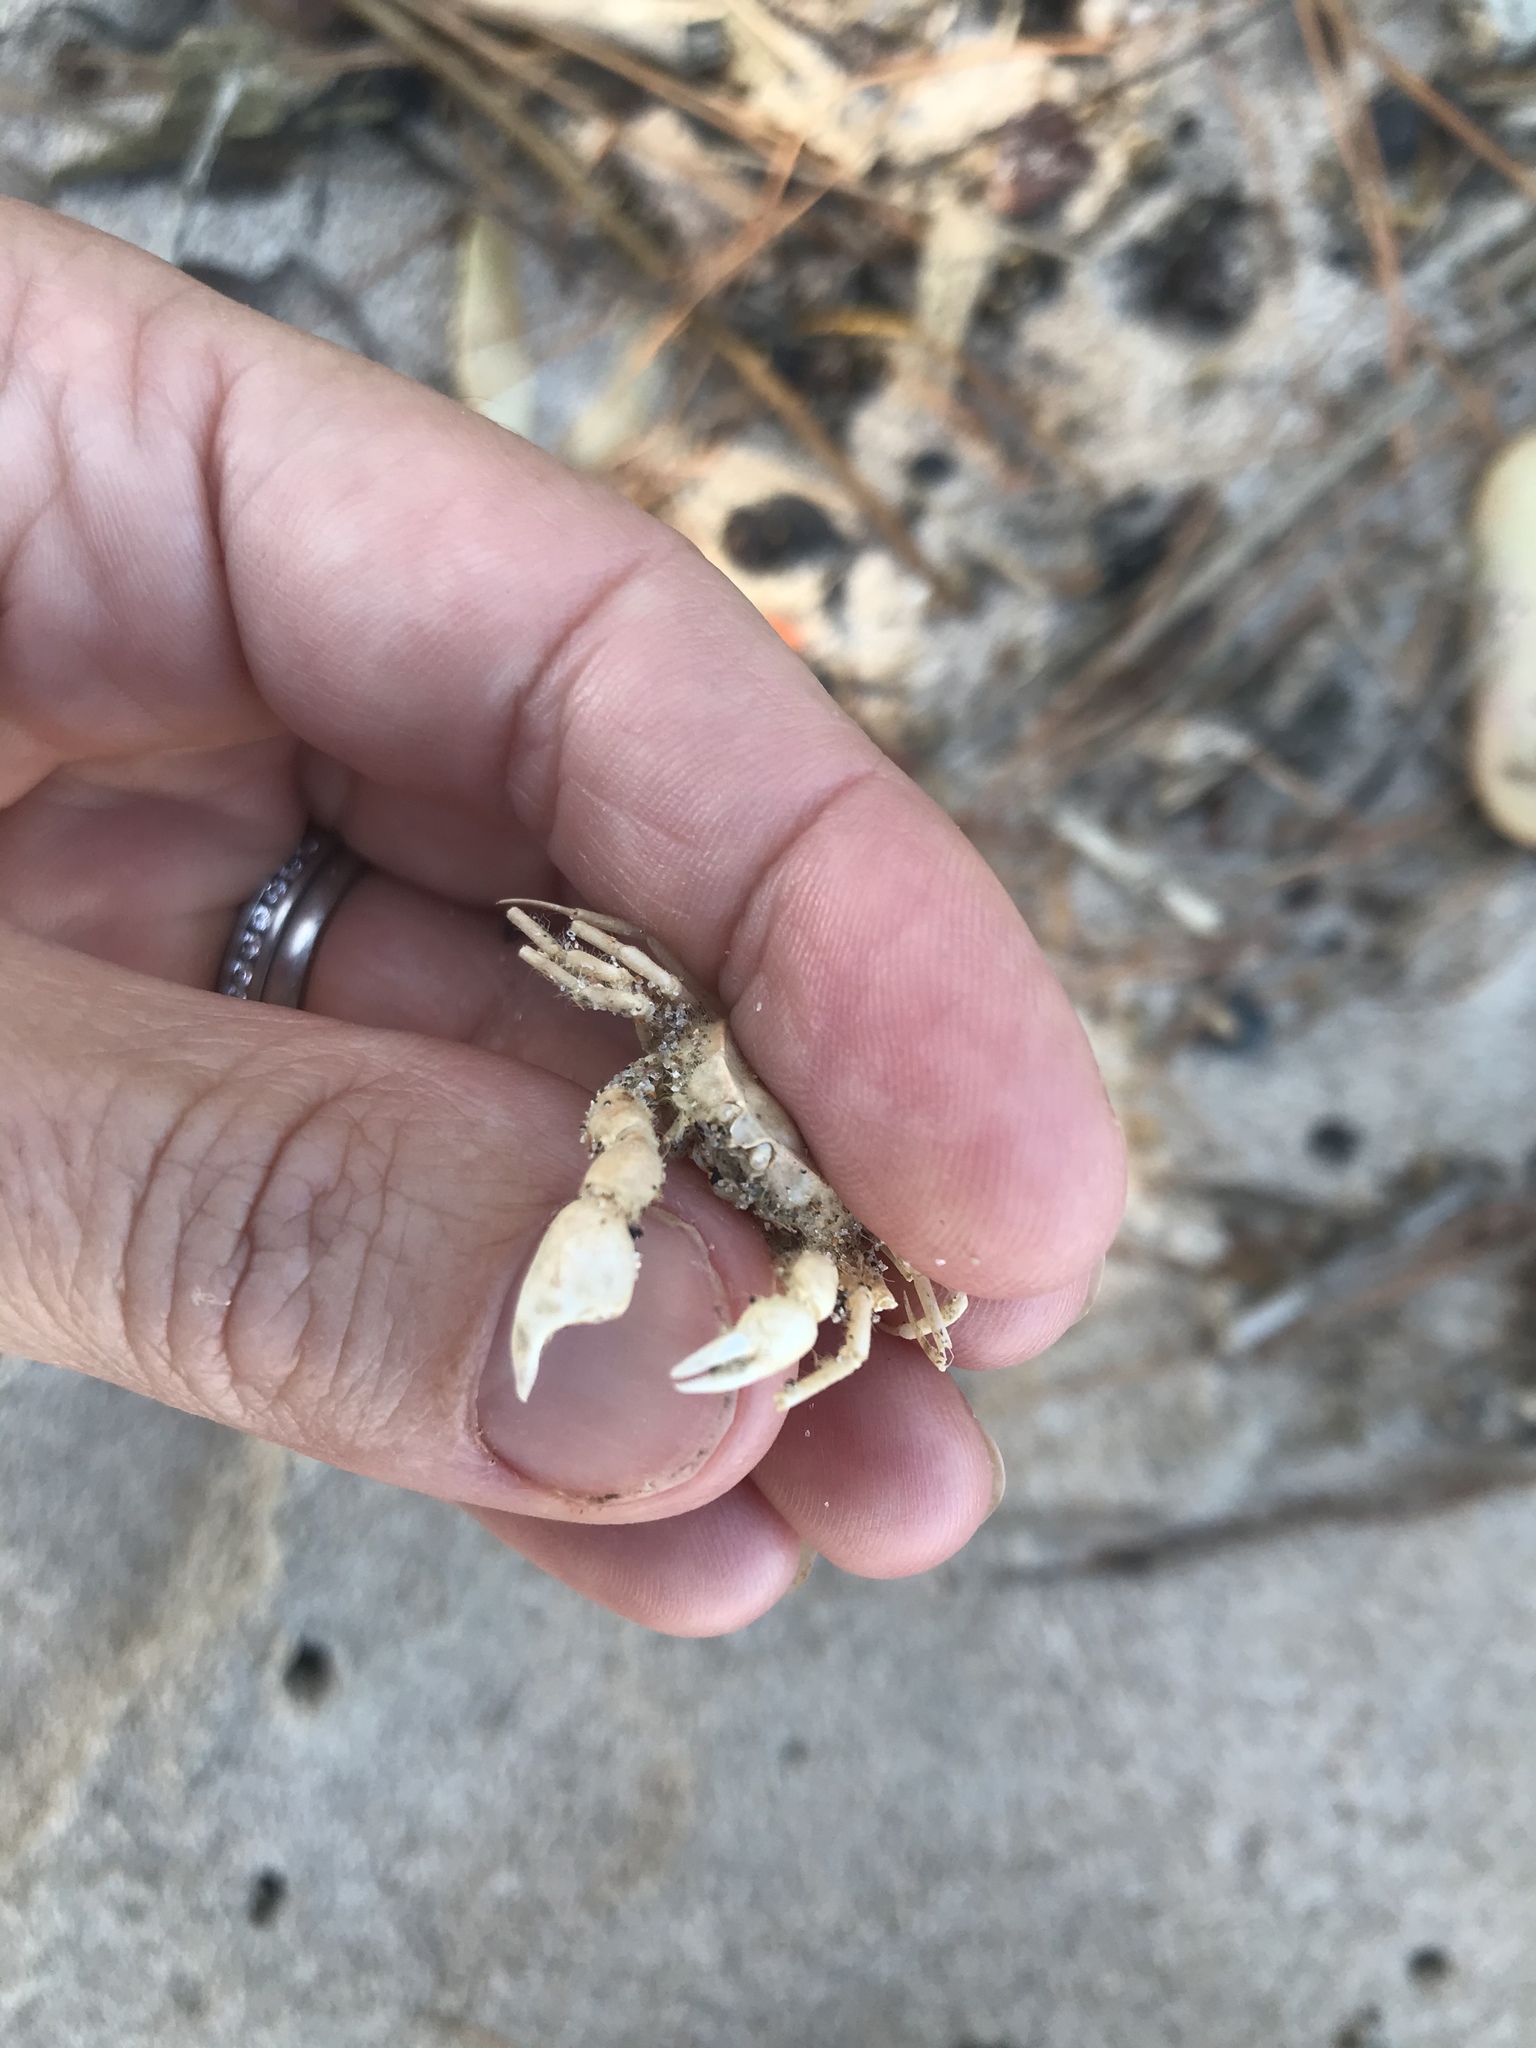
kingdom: Animalia
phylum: Arthropoda
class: Malacostraca
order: Decapoda
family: Hymenosomatidae
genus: Halicarcinus
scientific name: Halicarcinus whitei
